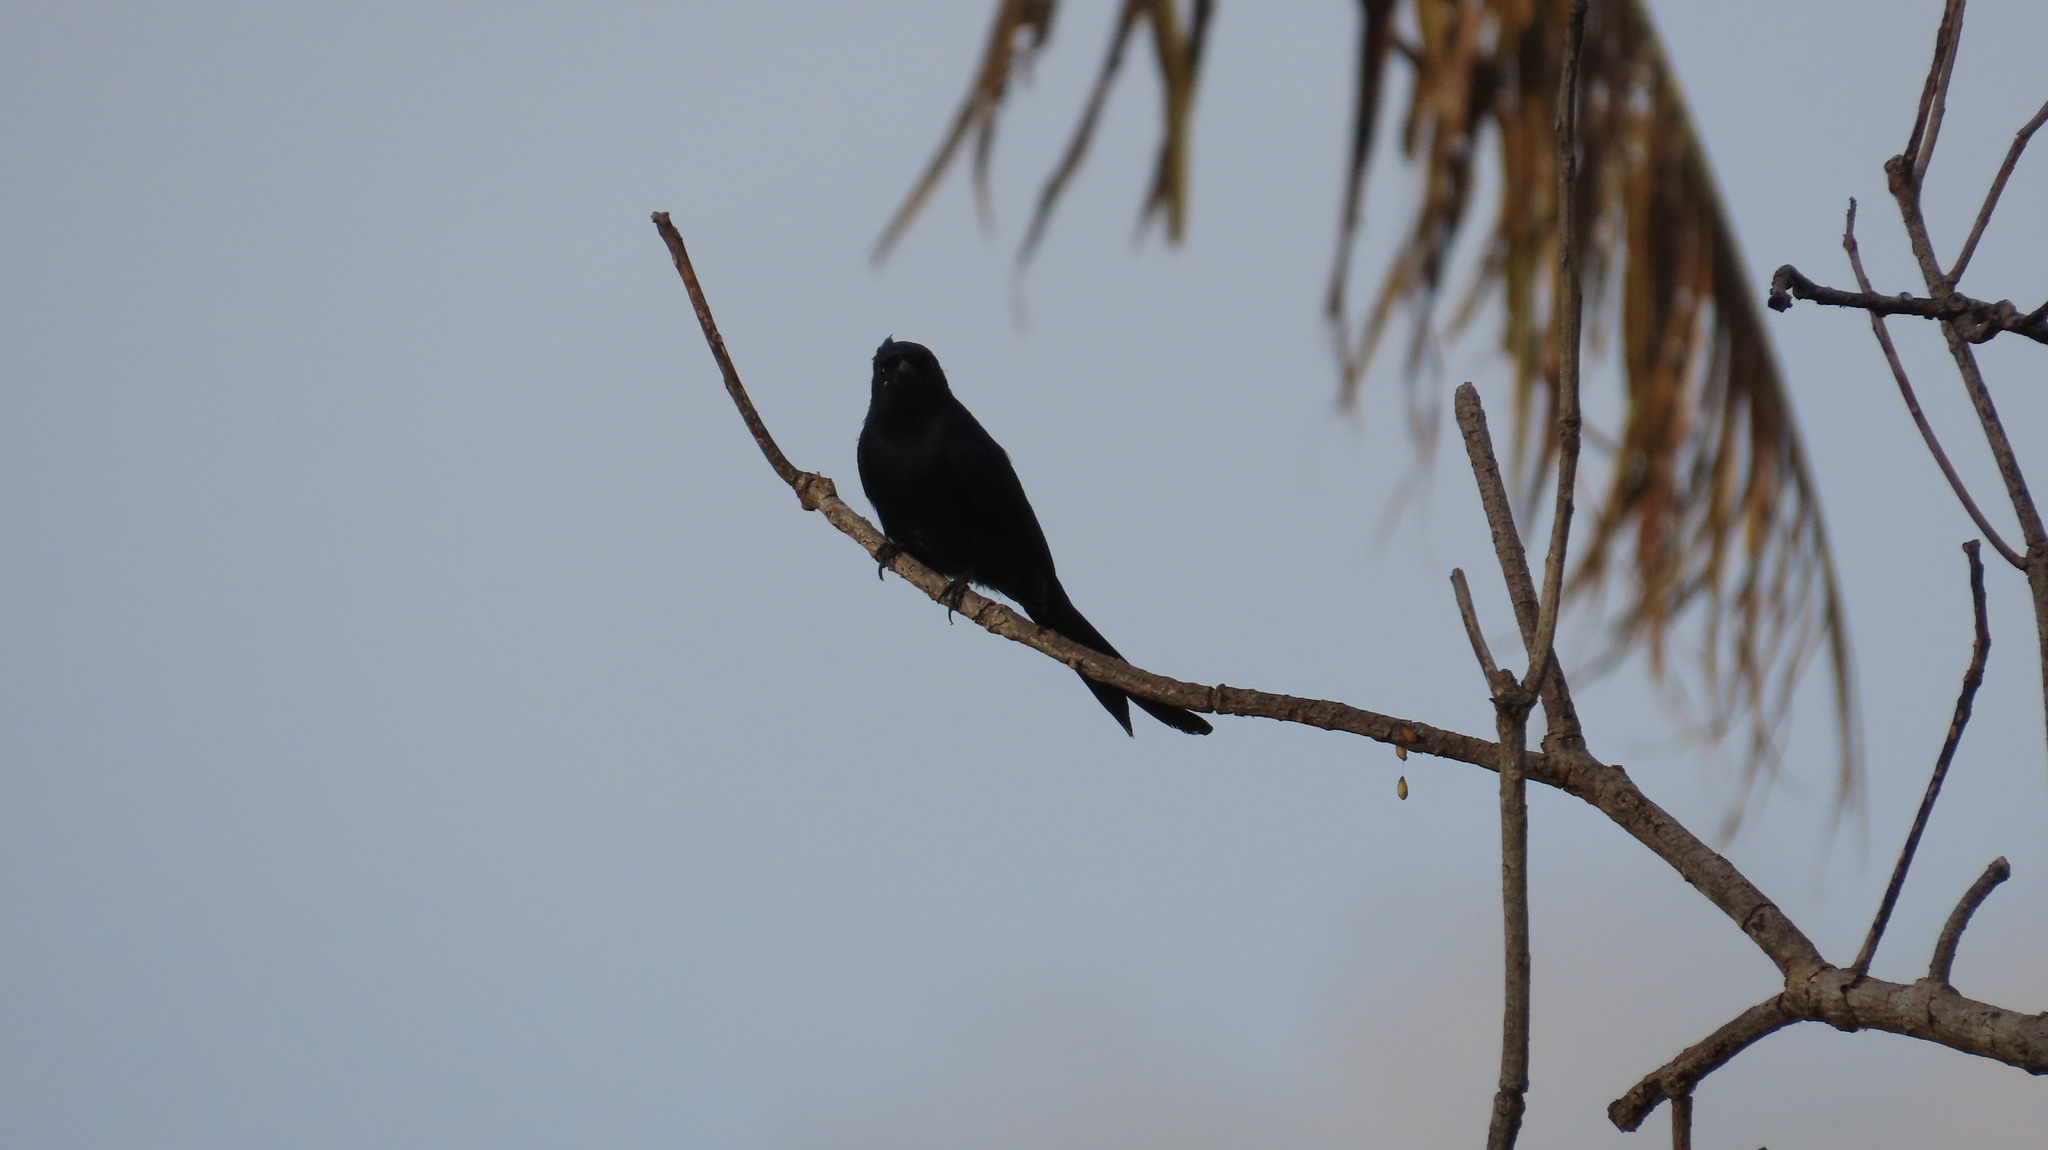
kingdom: Animalia
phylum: Chordata
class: Aves
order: Passeriformes
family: Dicruridae
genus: Dicrurus
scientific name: Dicrurus macrocercus
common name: Black drongo
